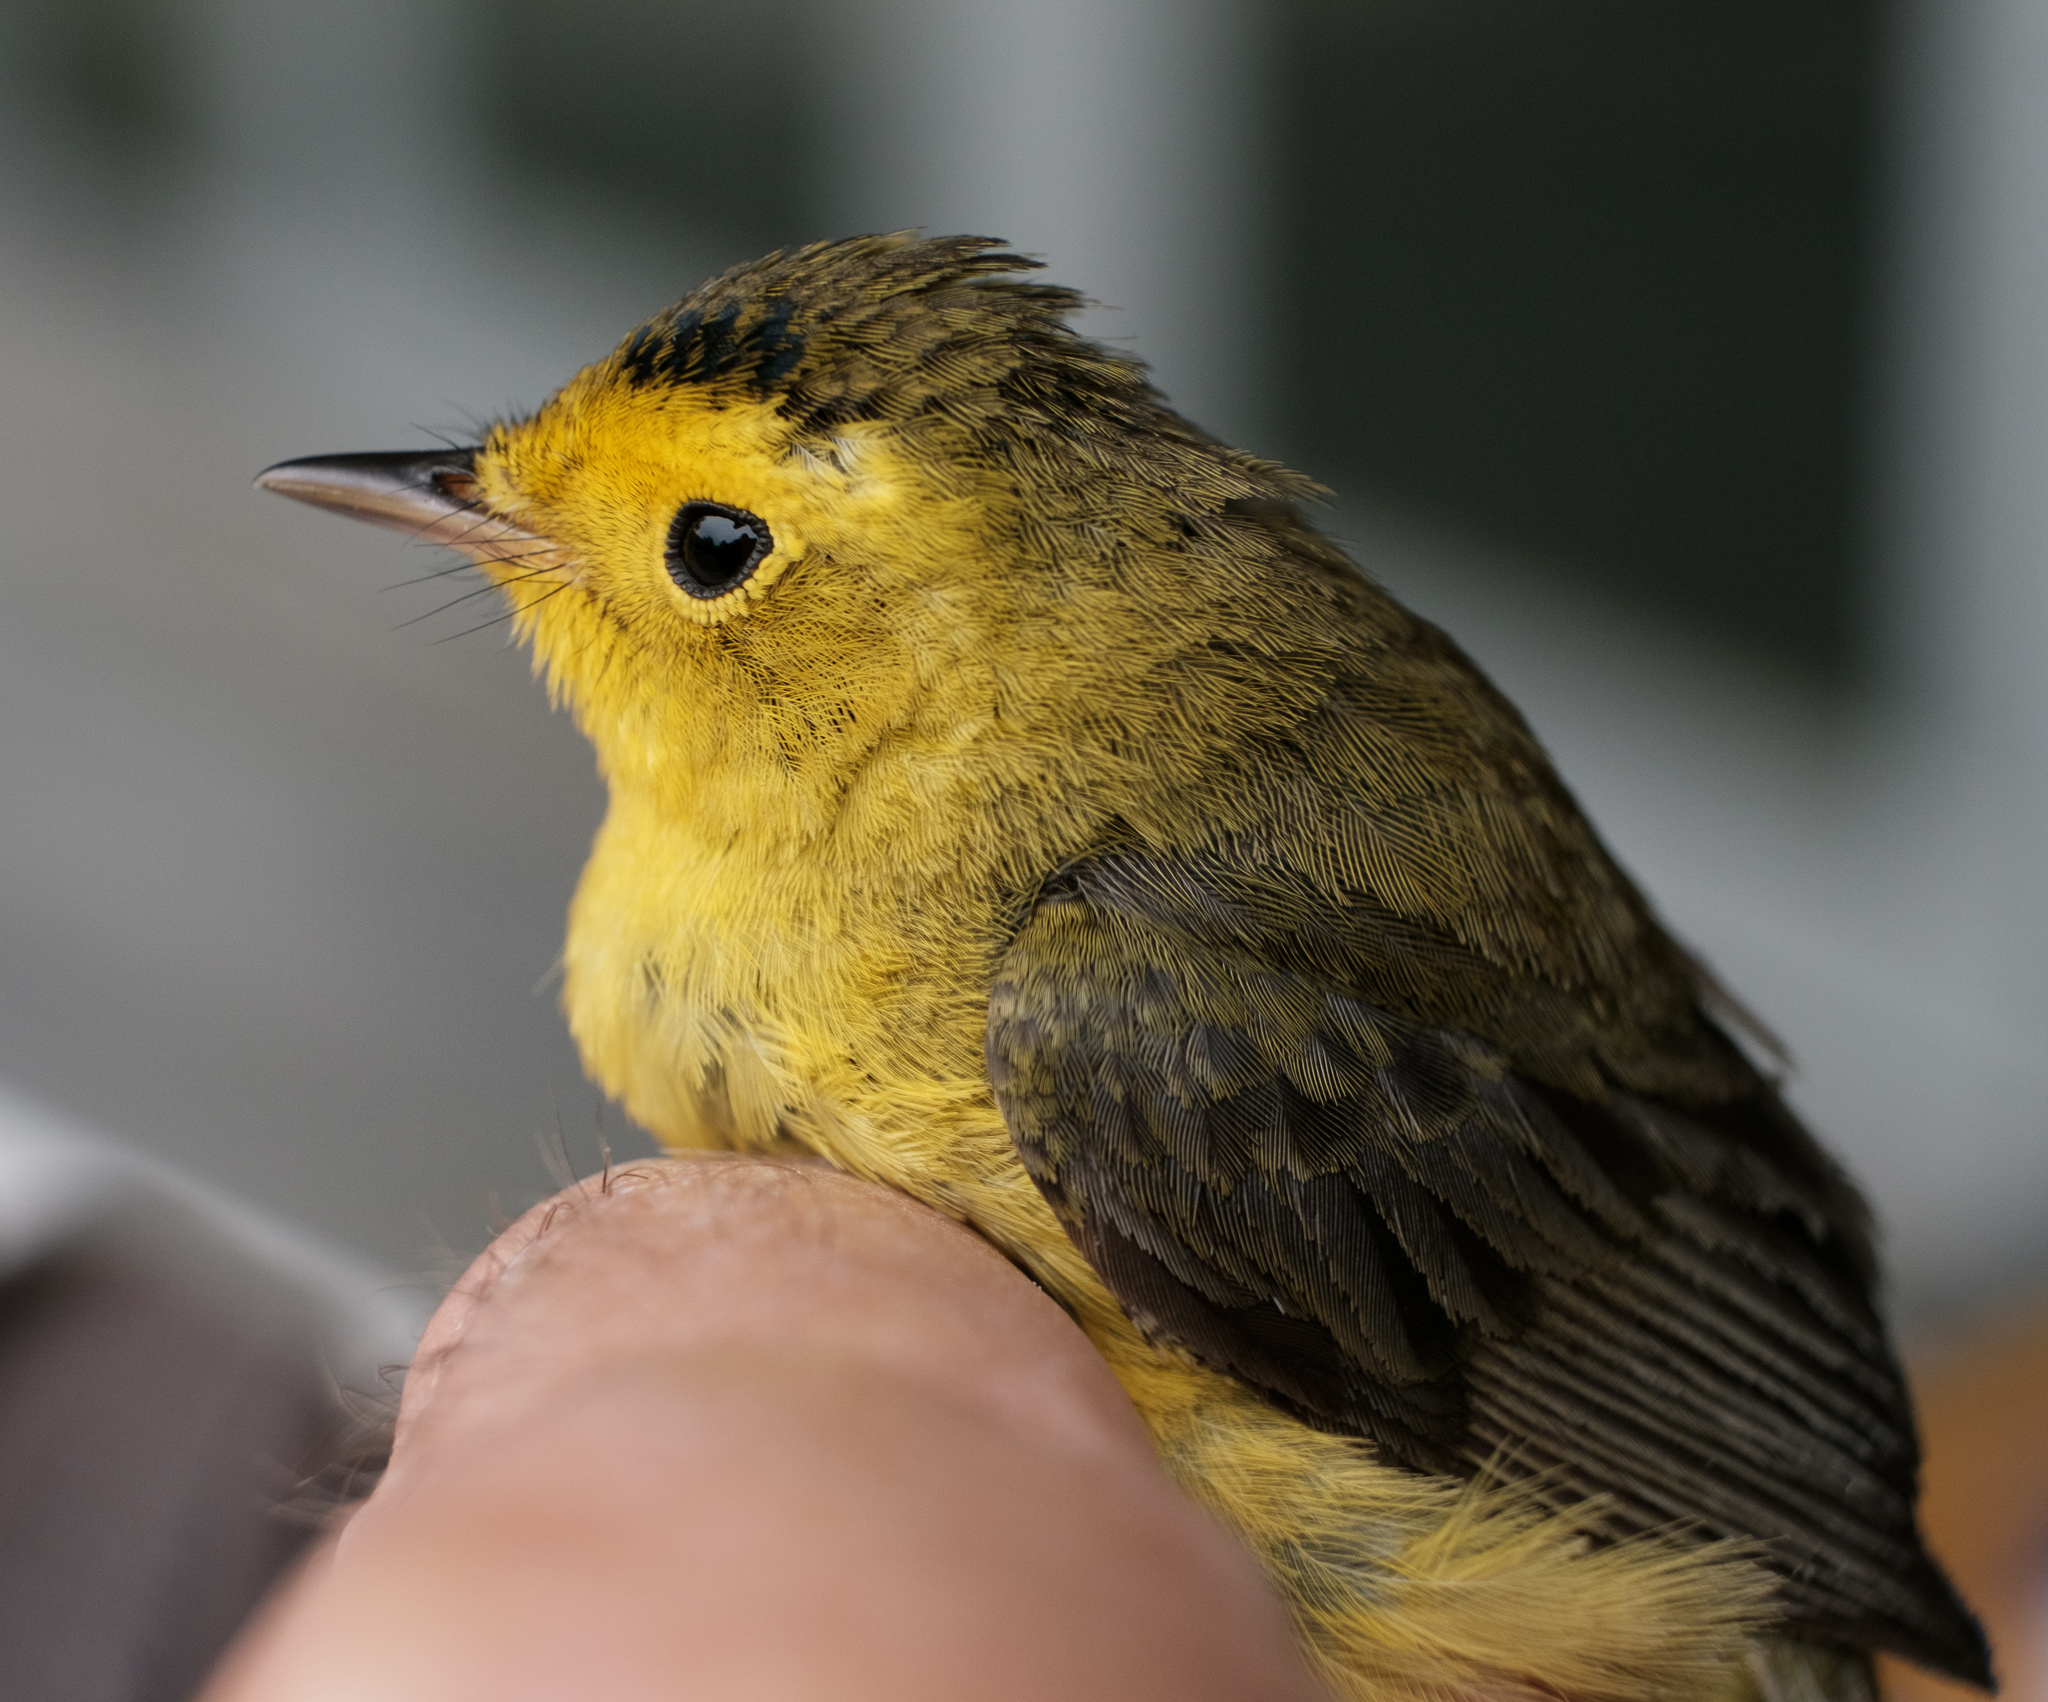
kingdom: Animalia
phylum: Chordata
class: Aves
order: Passeriformes
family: Parulidae
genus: Cardellina
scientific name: Cardellina pusilla
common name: Wilson's warbler
